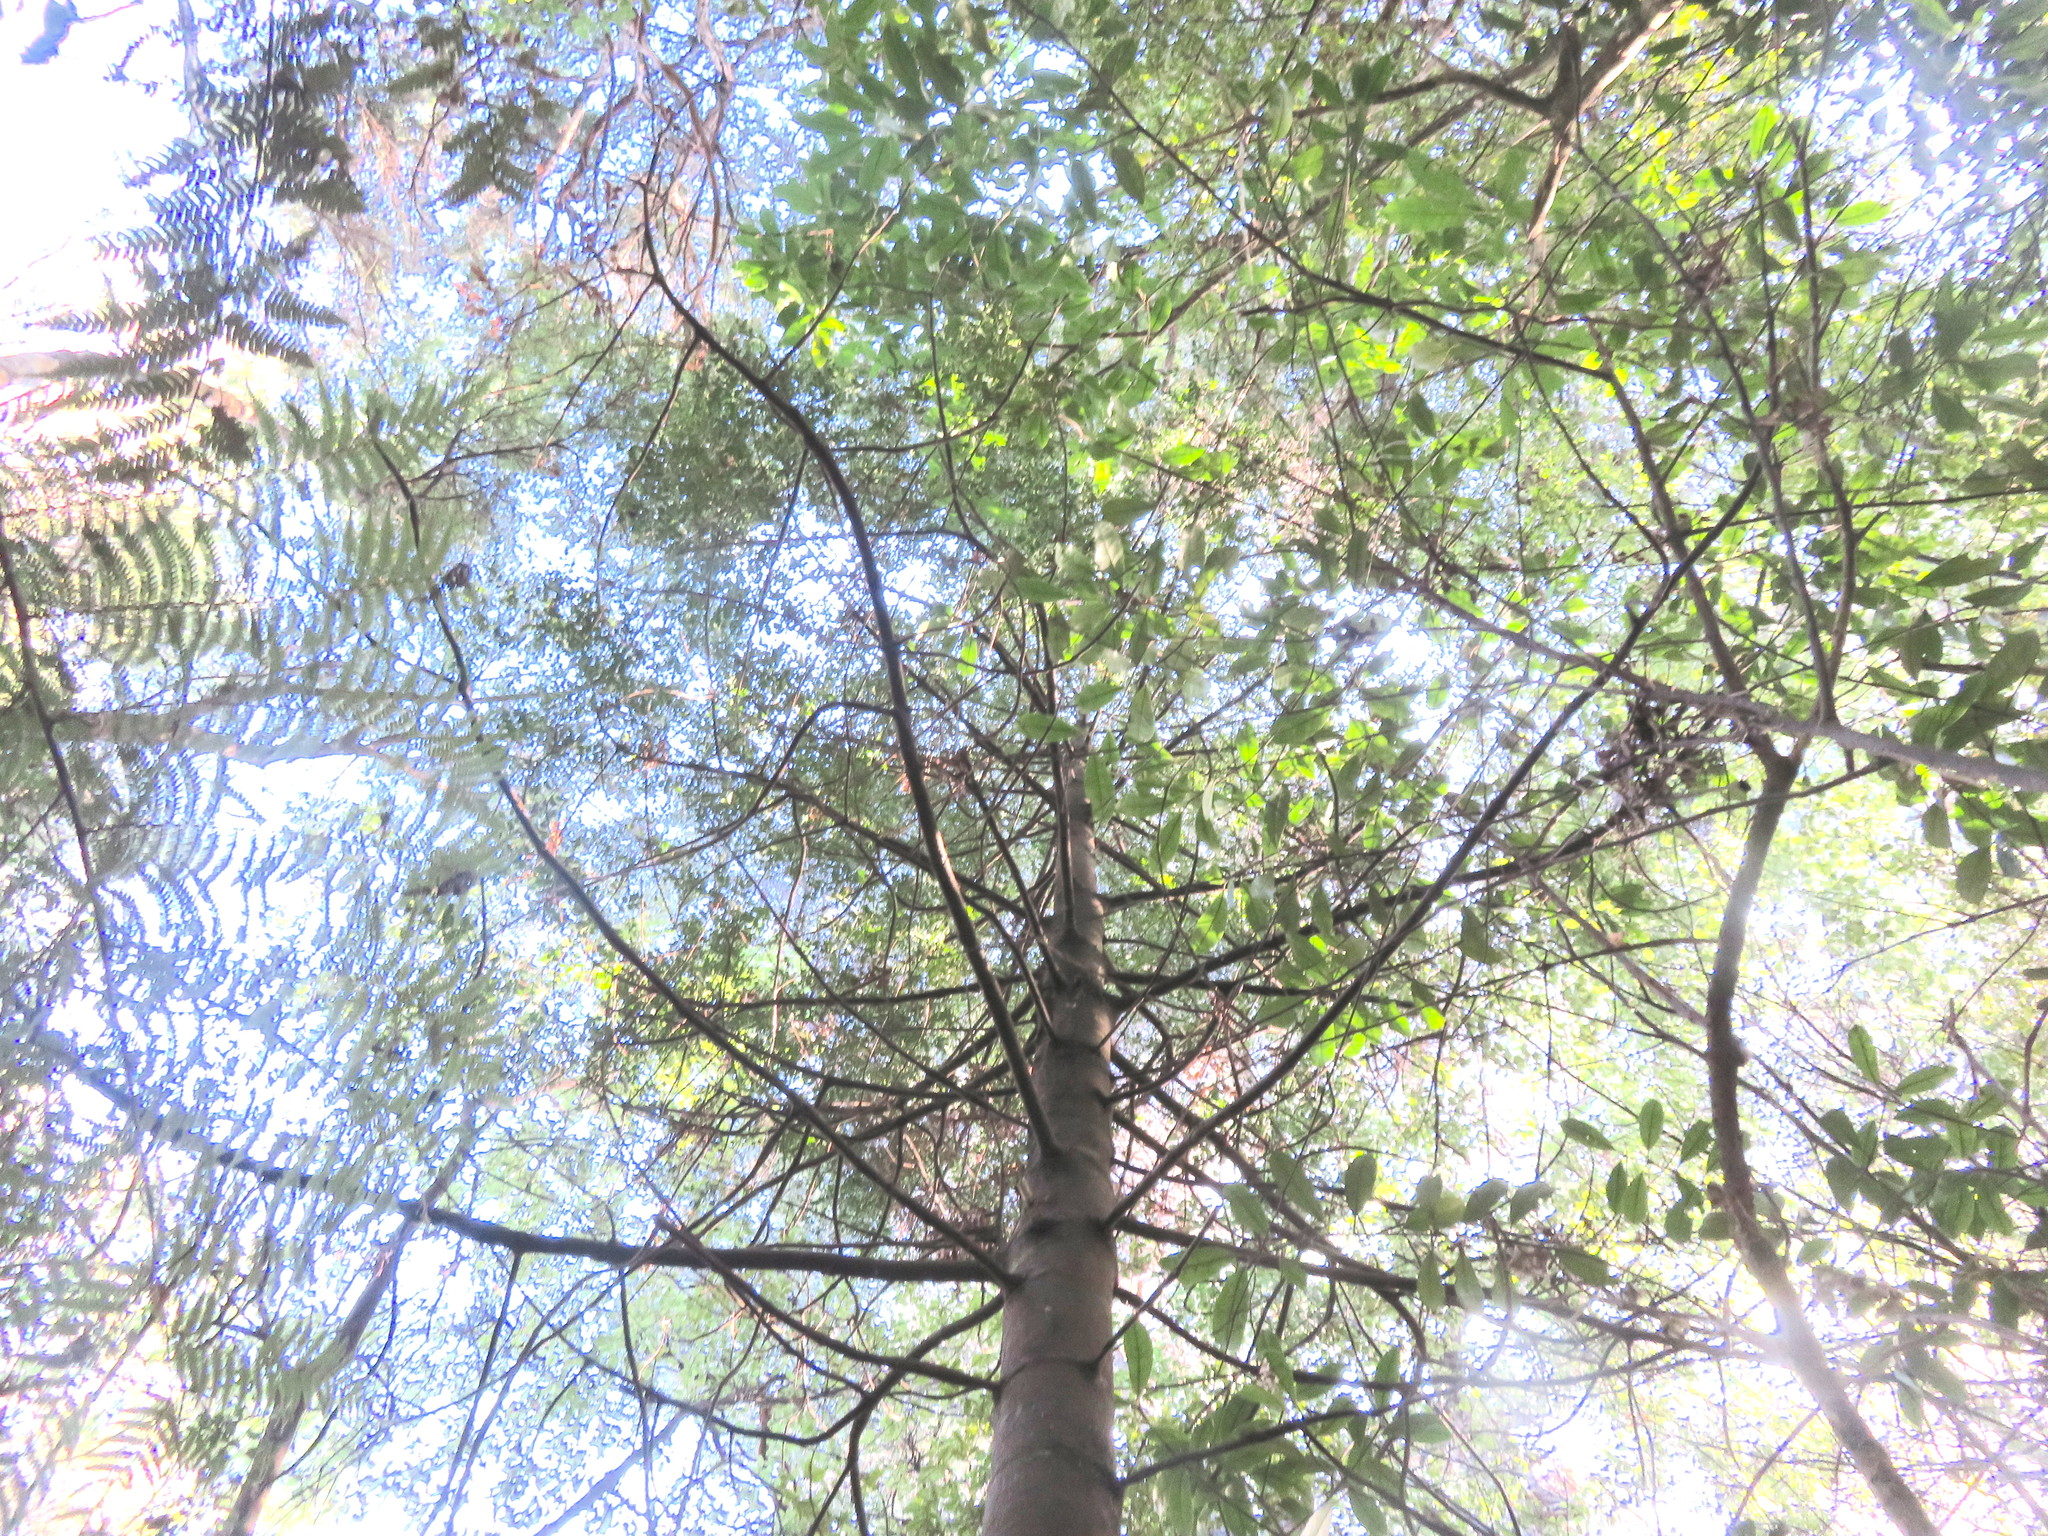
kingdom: Plantae
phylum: Tracheophyta
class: Pinopsida
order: Pinales
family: Phyllocladaceae
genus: Phyllocladus
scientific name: Phyllocladus trichomanoides
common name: Celery pine
